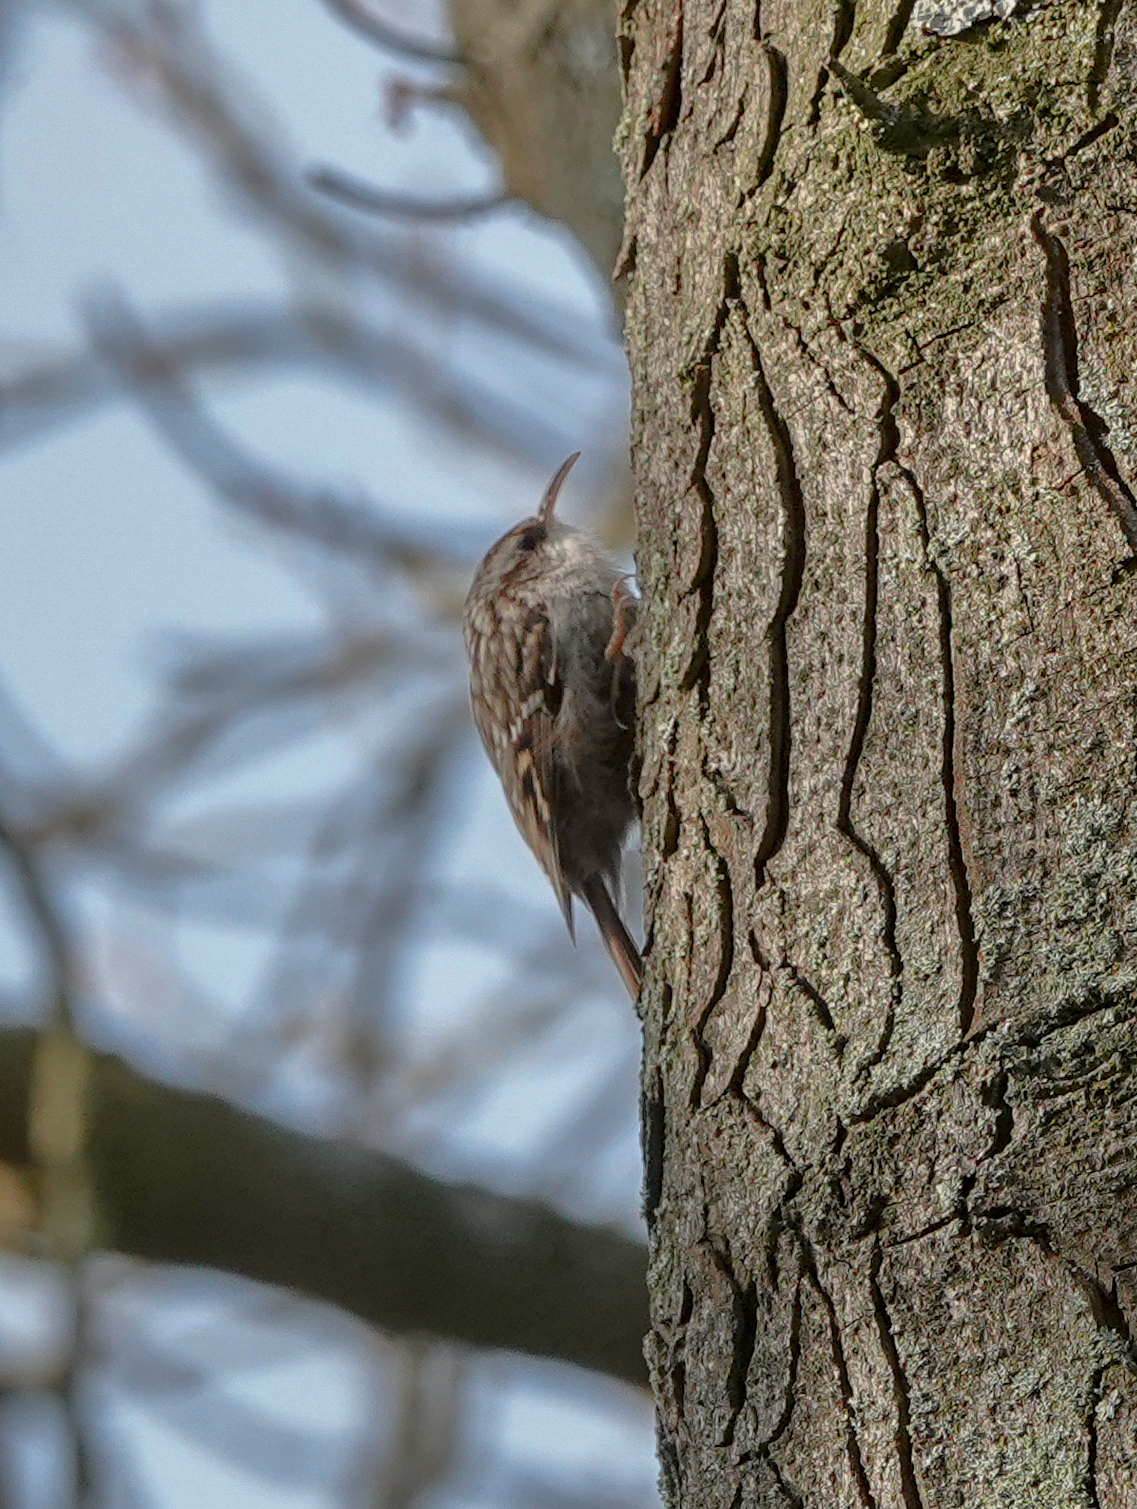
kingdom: Animalia
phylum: Chordata
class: Aves
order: Passeriformes
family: Certhiidae
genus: Certhia
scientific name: Certhia brachydactyla
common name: Short-toed treecreeper
